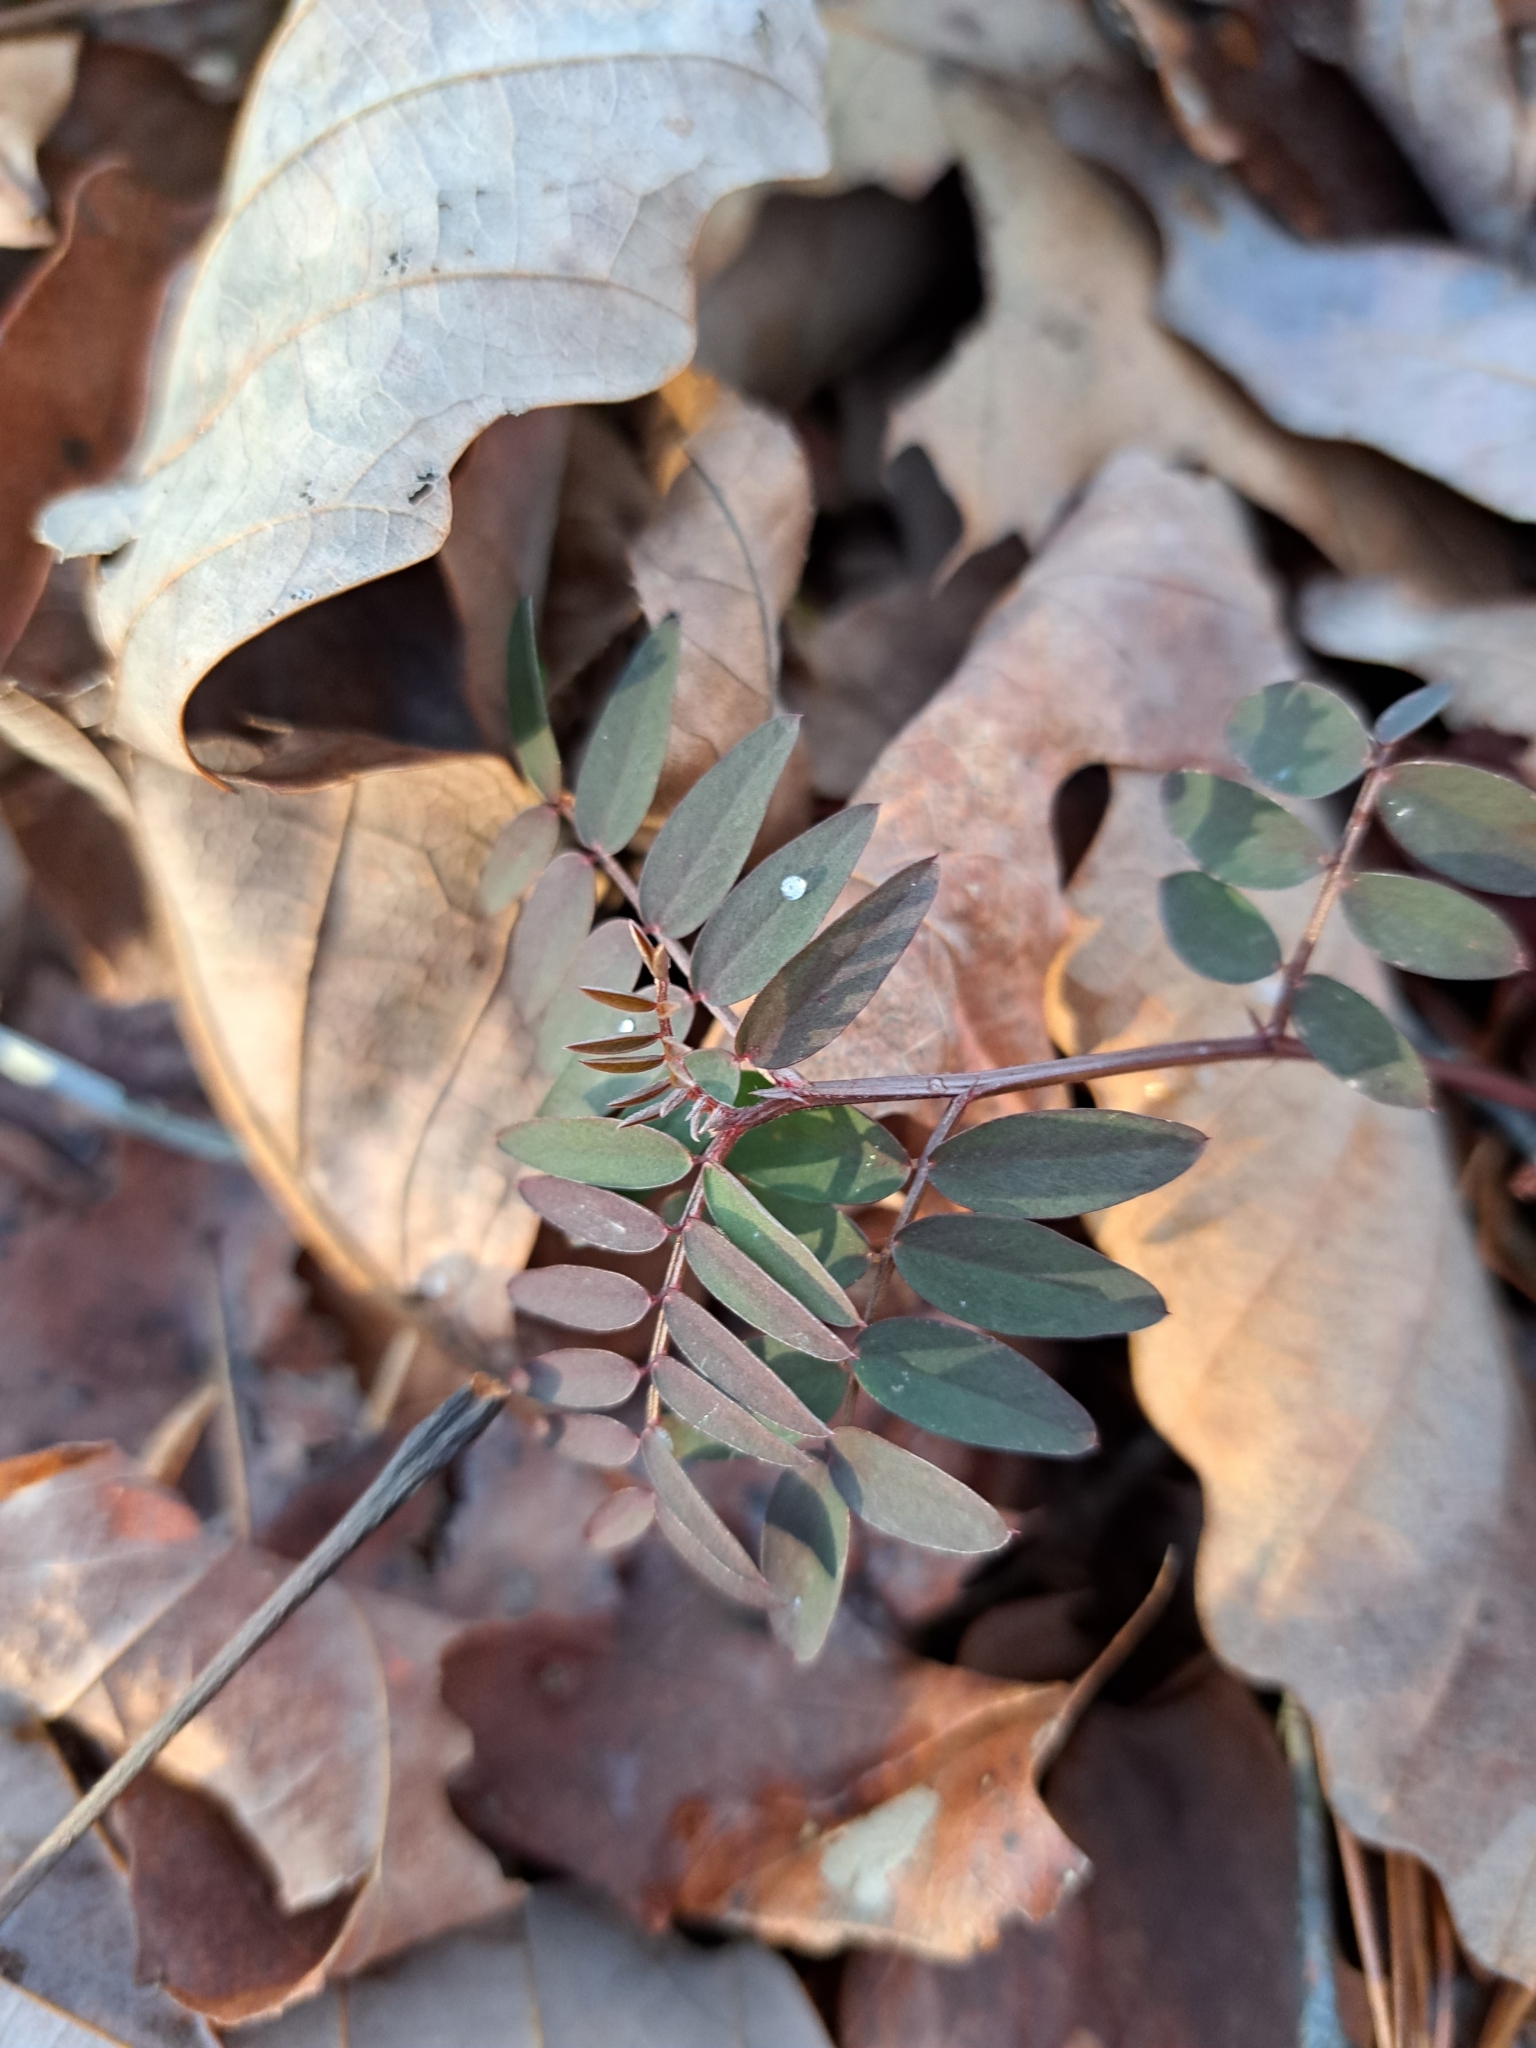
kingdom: Plantae
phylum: Tracheophyta
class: Magnoliopsida
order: Fabales
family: Fabaceae
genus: Vicia
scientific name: Vicia caroliniana
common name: Carolina vetch
